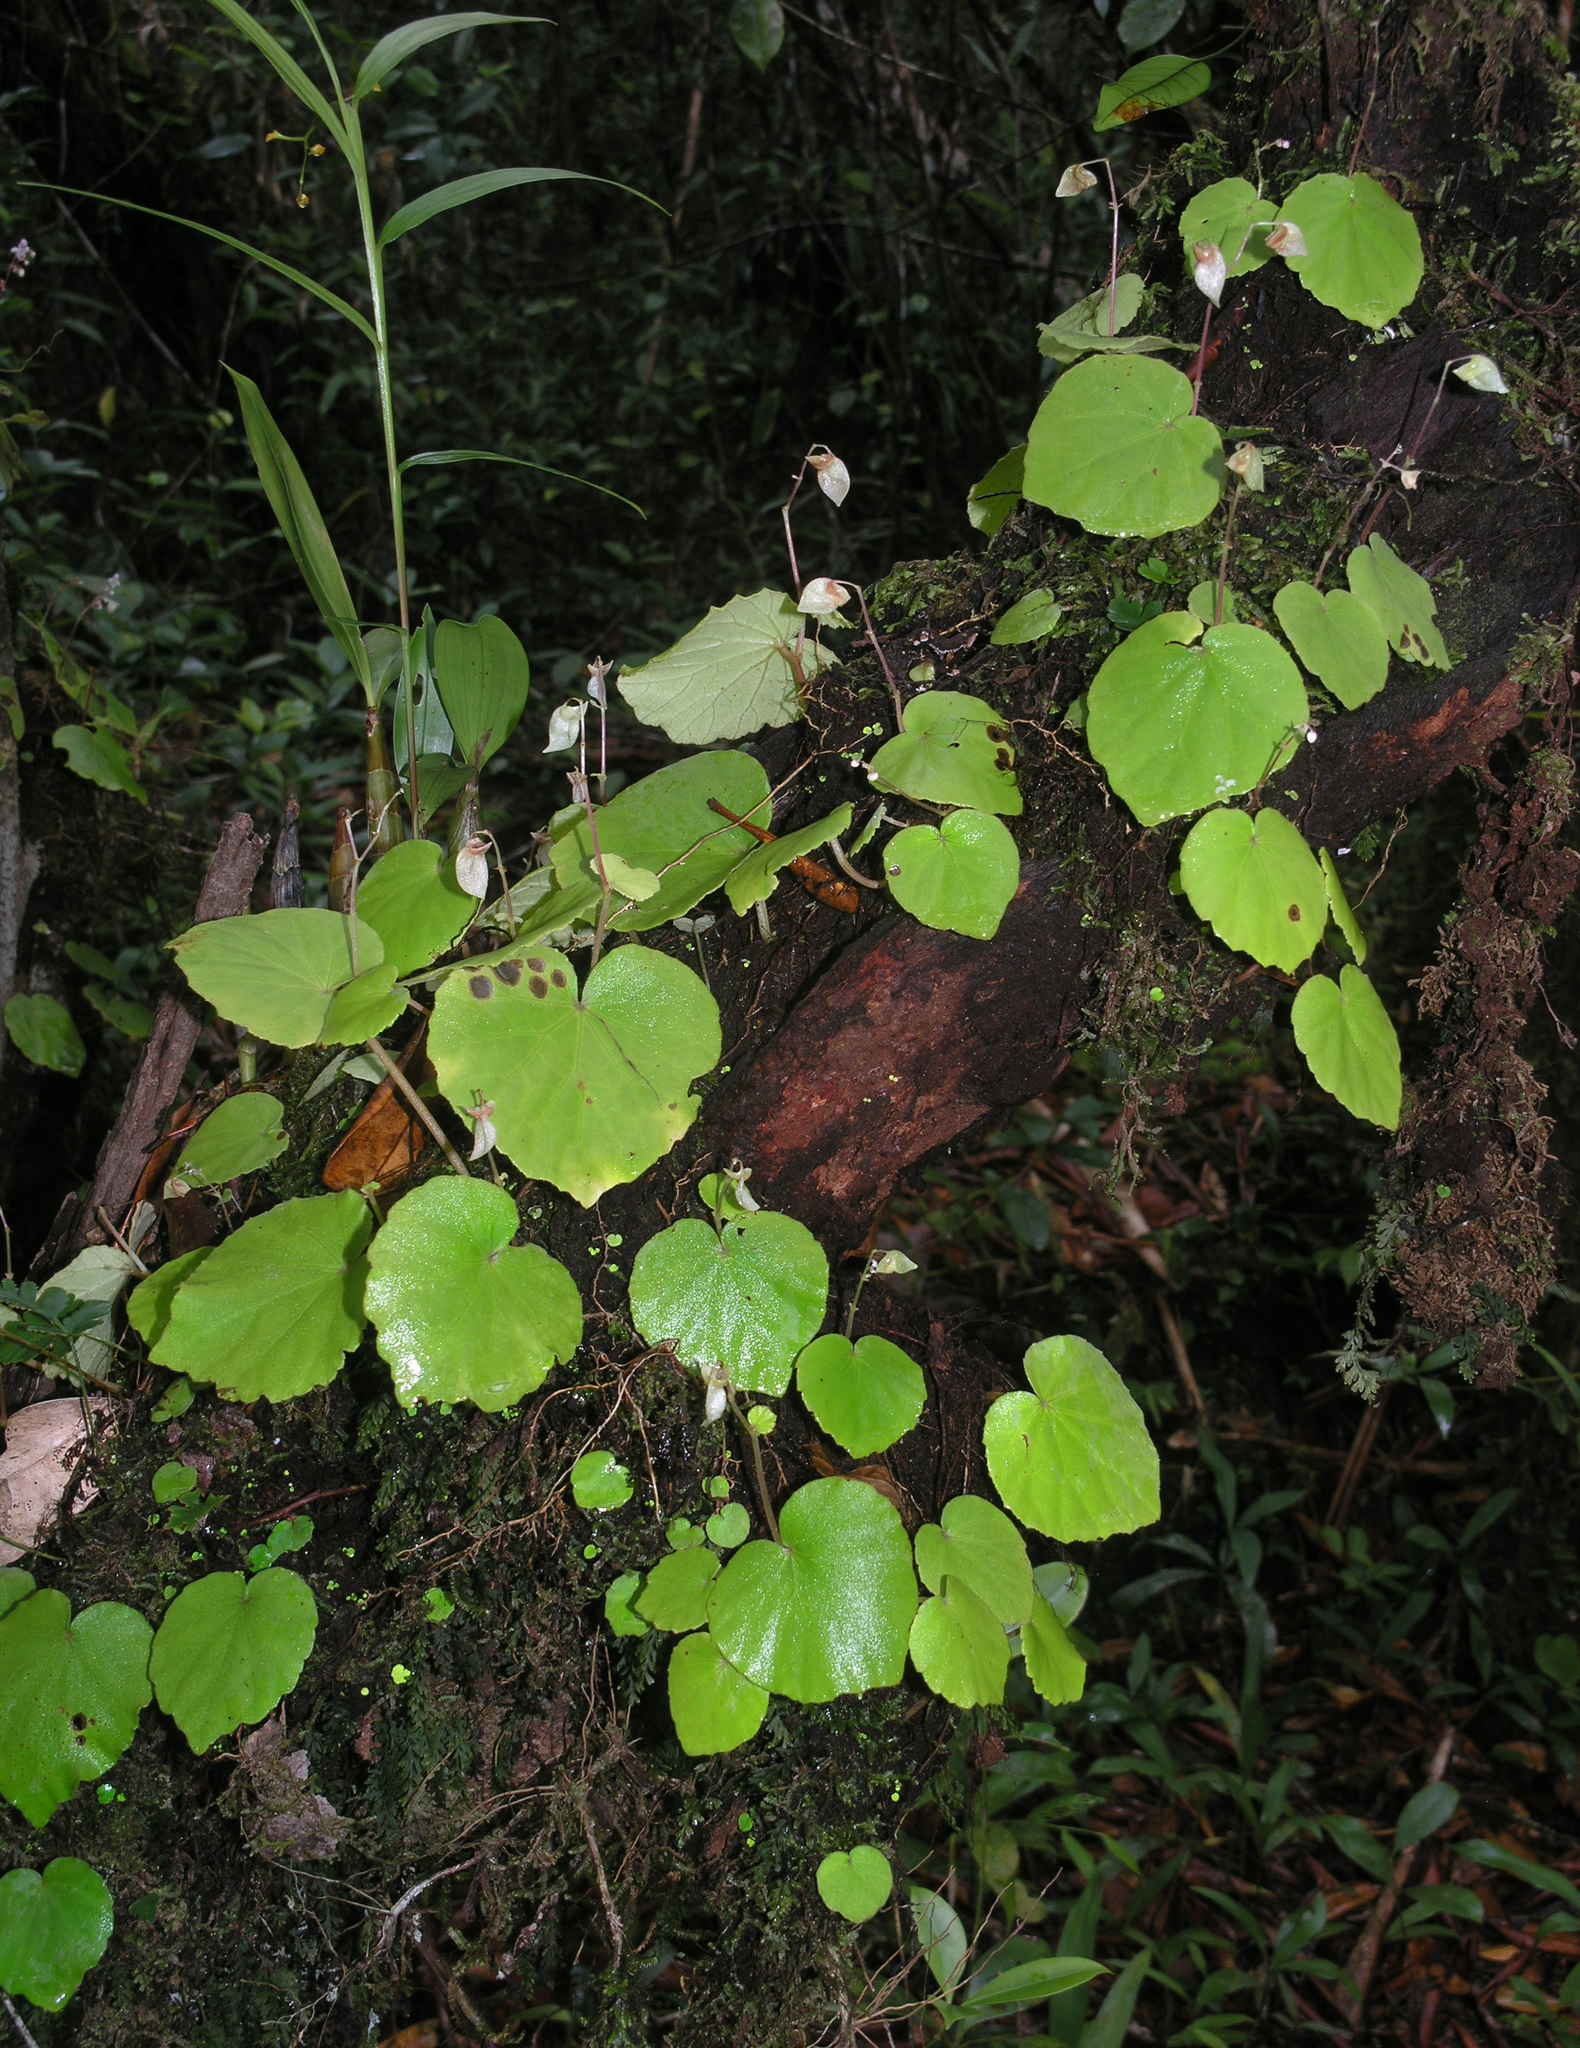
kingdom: Plantae
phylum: Tracheophyta
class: Magnoliopsida
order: Cucurbitales
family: Begoniaceae
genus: Begonia
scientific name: Begonia sinuata
